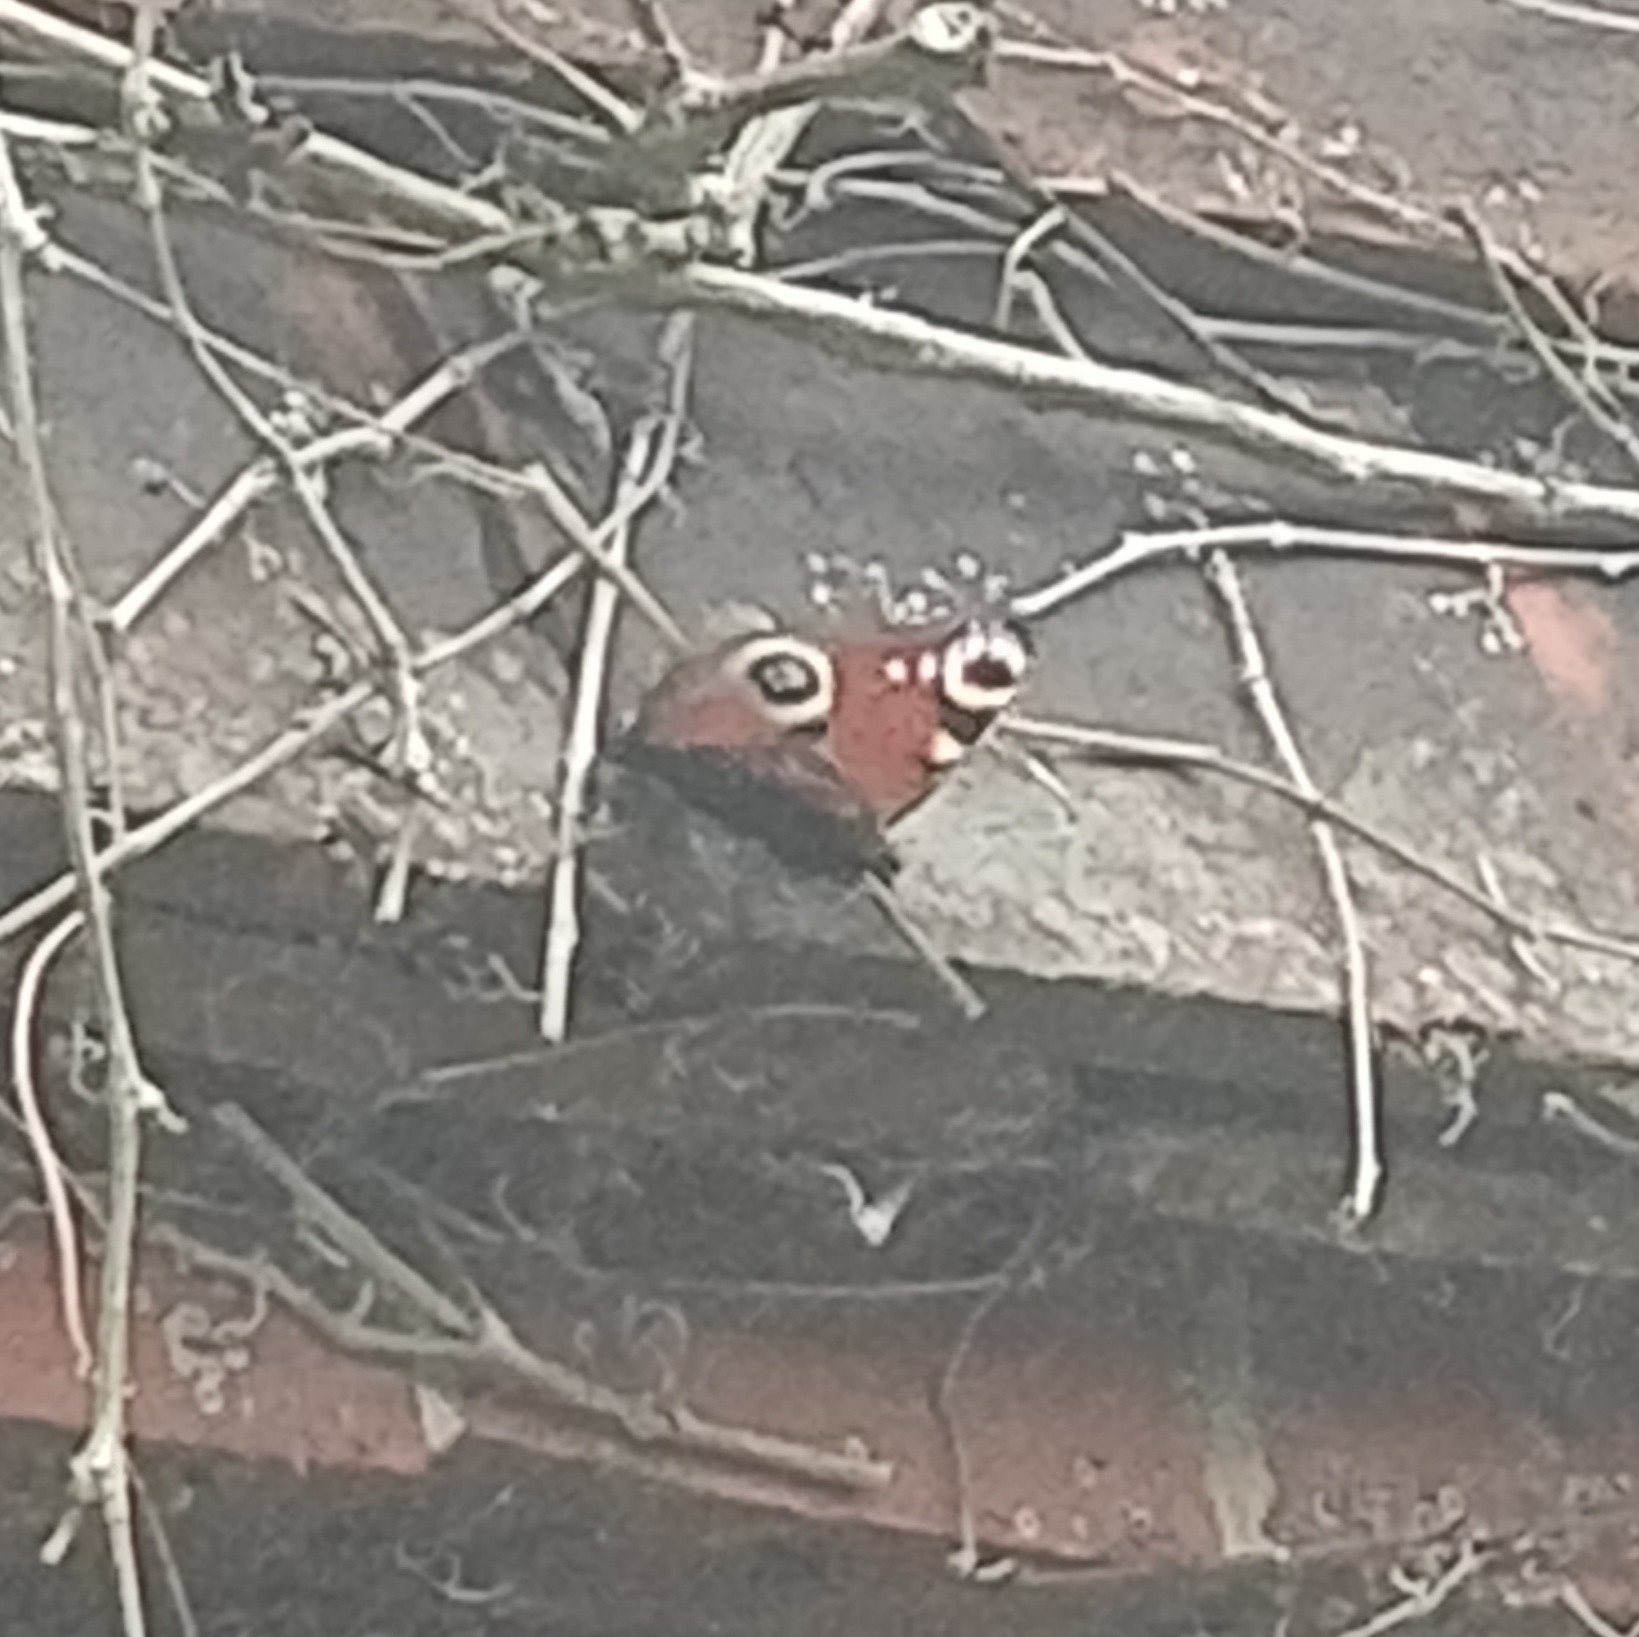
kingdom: Animalia
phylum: Arthropoda
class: Insecta
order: Lepidoptera
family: Nymphalidae
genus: Aglais
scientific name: Aglais io
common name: Peacock
